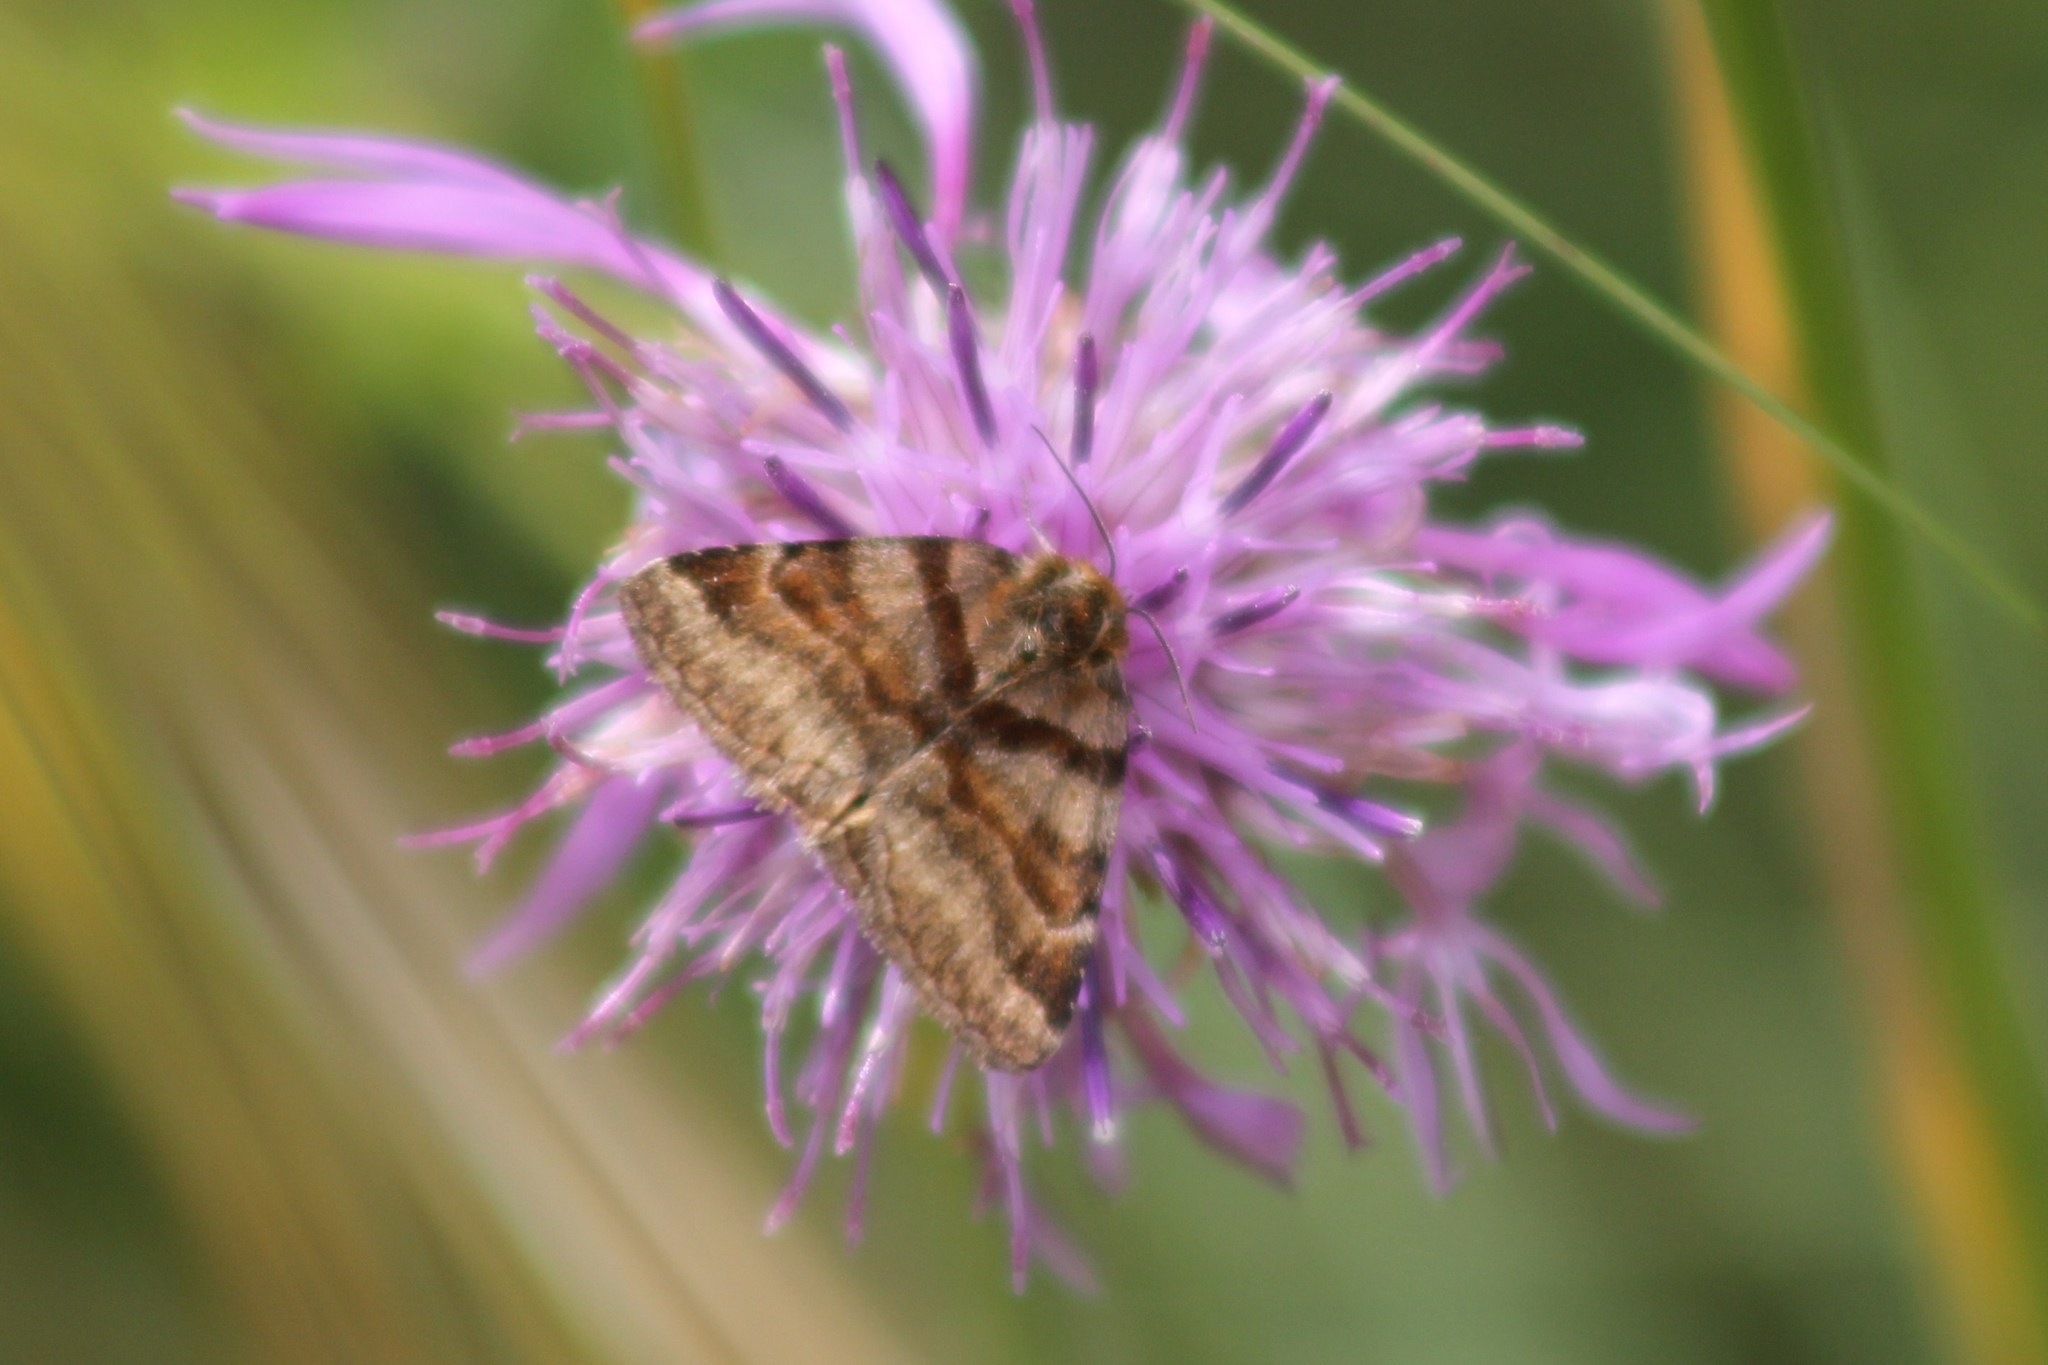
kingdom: Animalia
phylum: Arthropoda
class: Insecta
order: Lepidoptera
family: Erebidae
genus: Euclidia
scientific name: Euclidia glyphica
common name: Burnet companion
